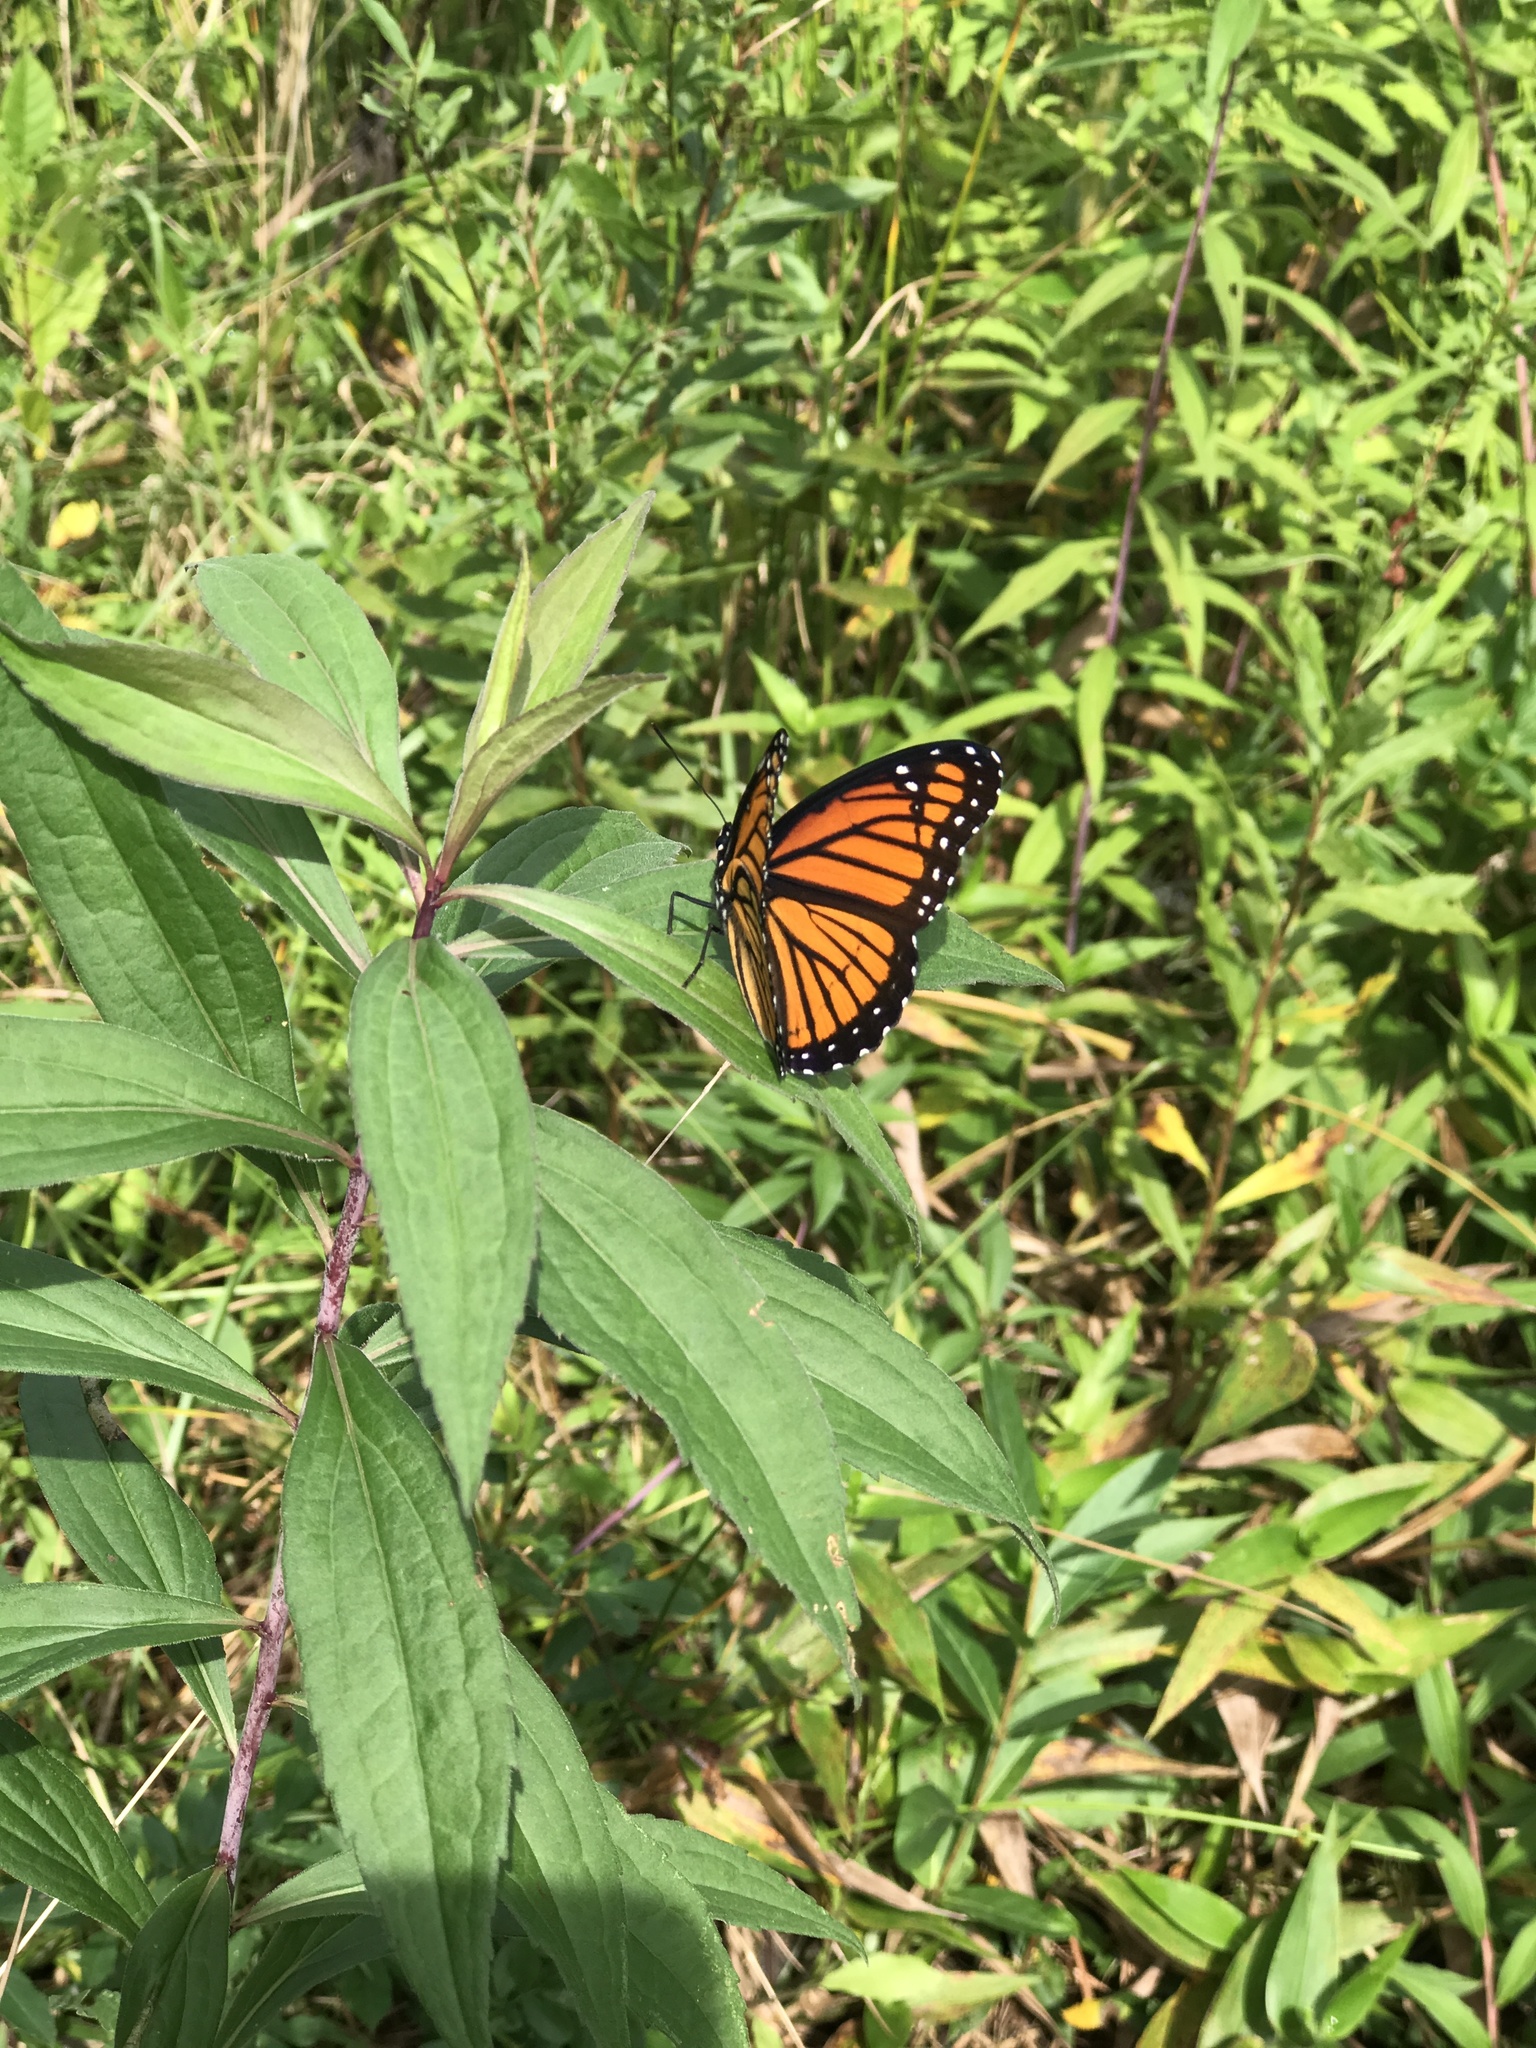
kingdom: Animalia
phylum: Arthropoda
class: Insecta
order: Lepidoptera
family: Nymphalidae
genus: Limenitis
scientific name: Limenitis archippus
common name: Viceroy
